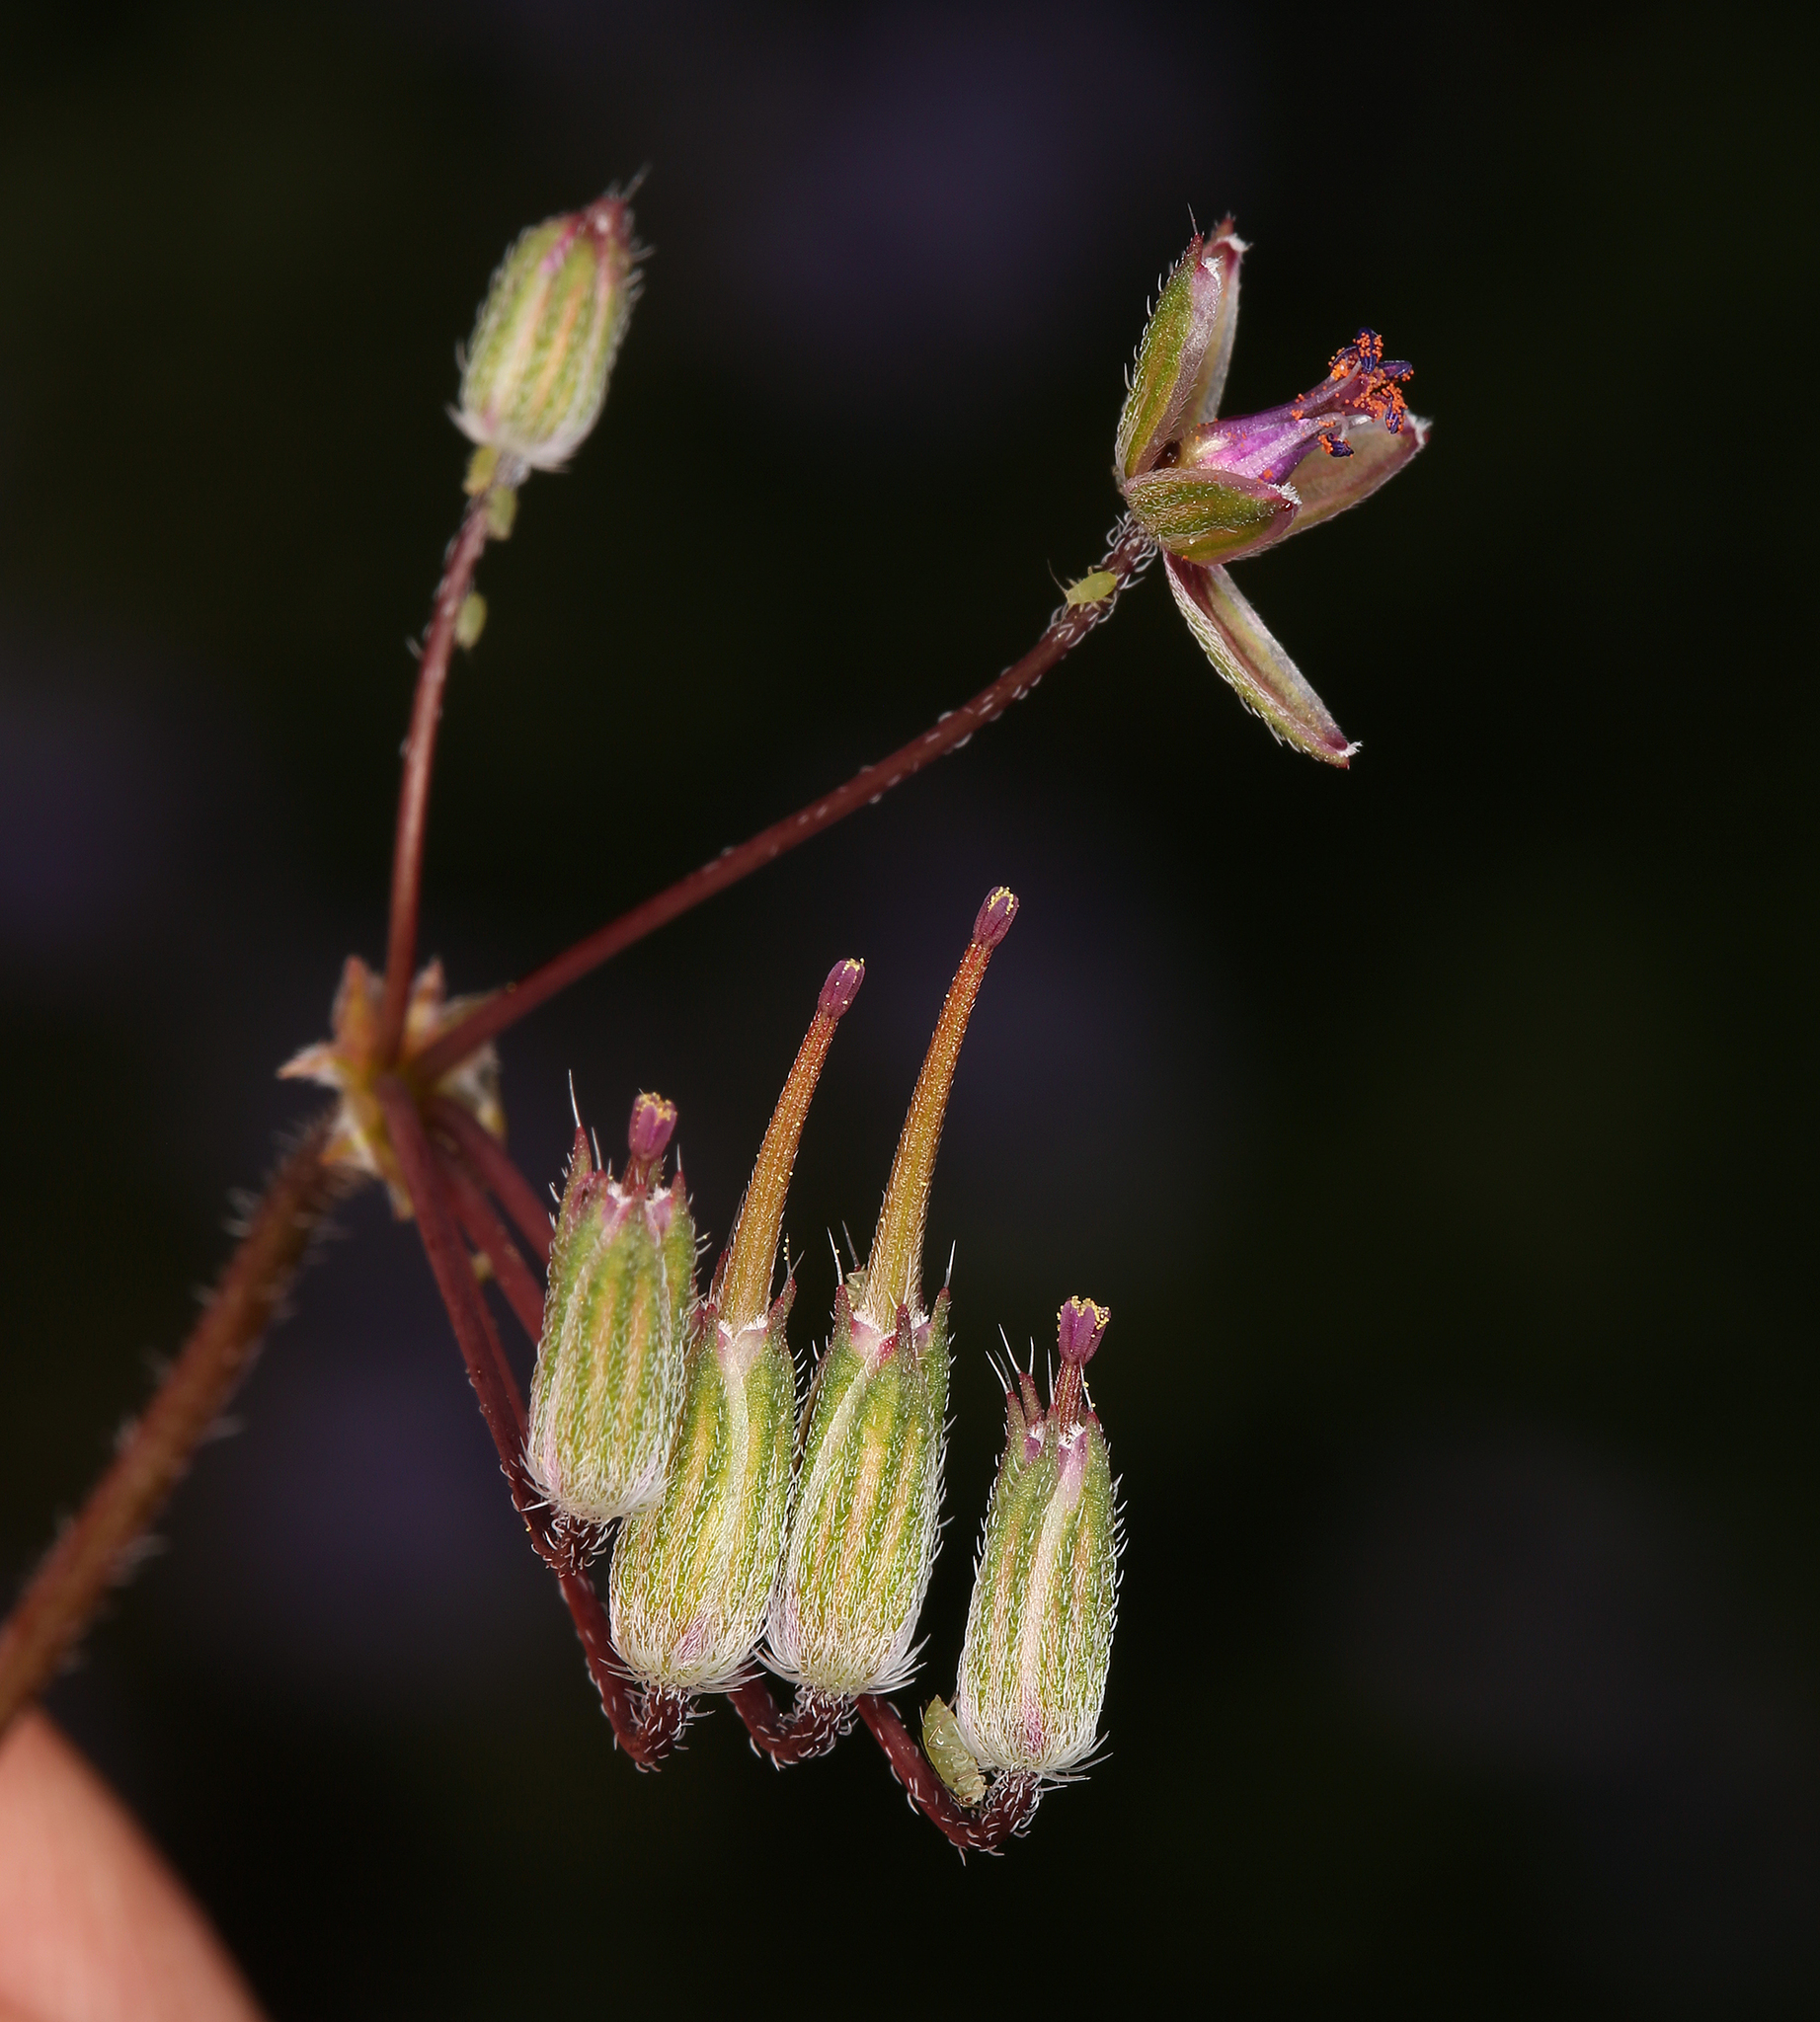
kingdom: Plantae
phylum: Tracheophyta
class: Magnoliopsida
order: Geraniales
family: Geraniaceae
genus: Erodium
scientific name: Erodium cicutarium
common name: Common stork's-bill
